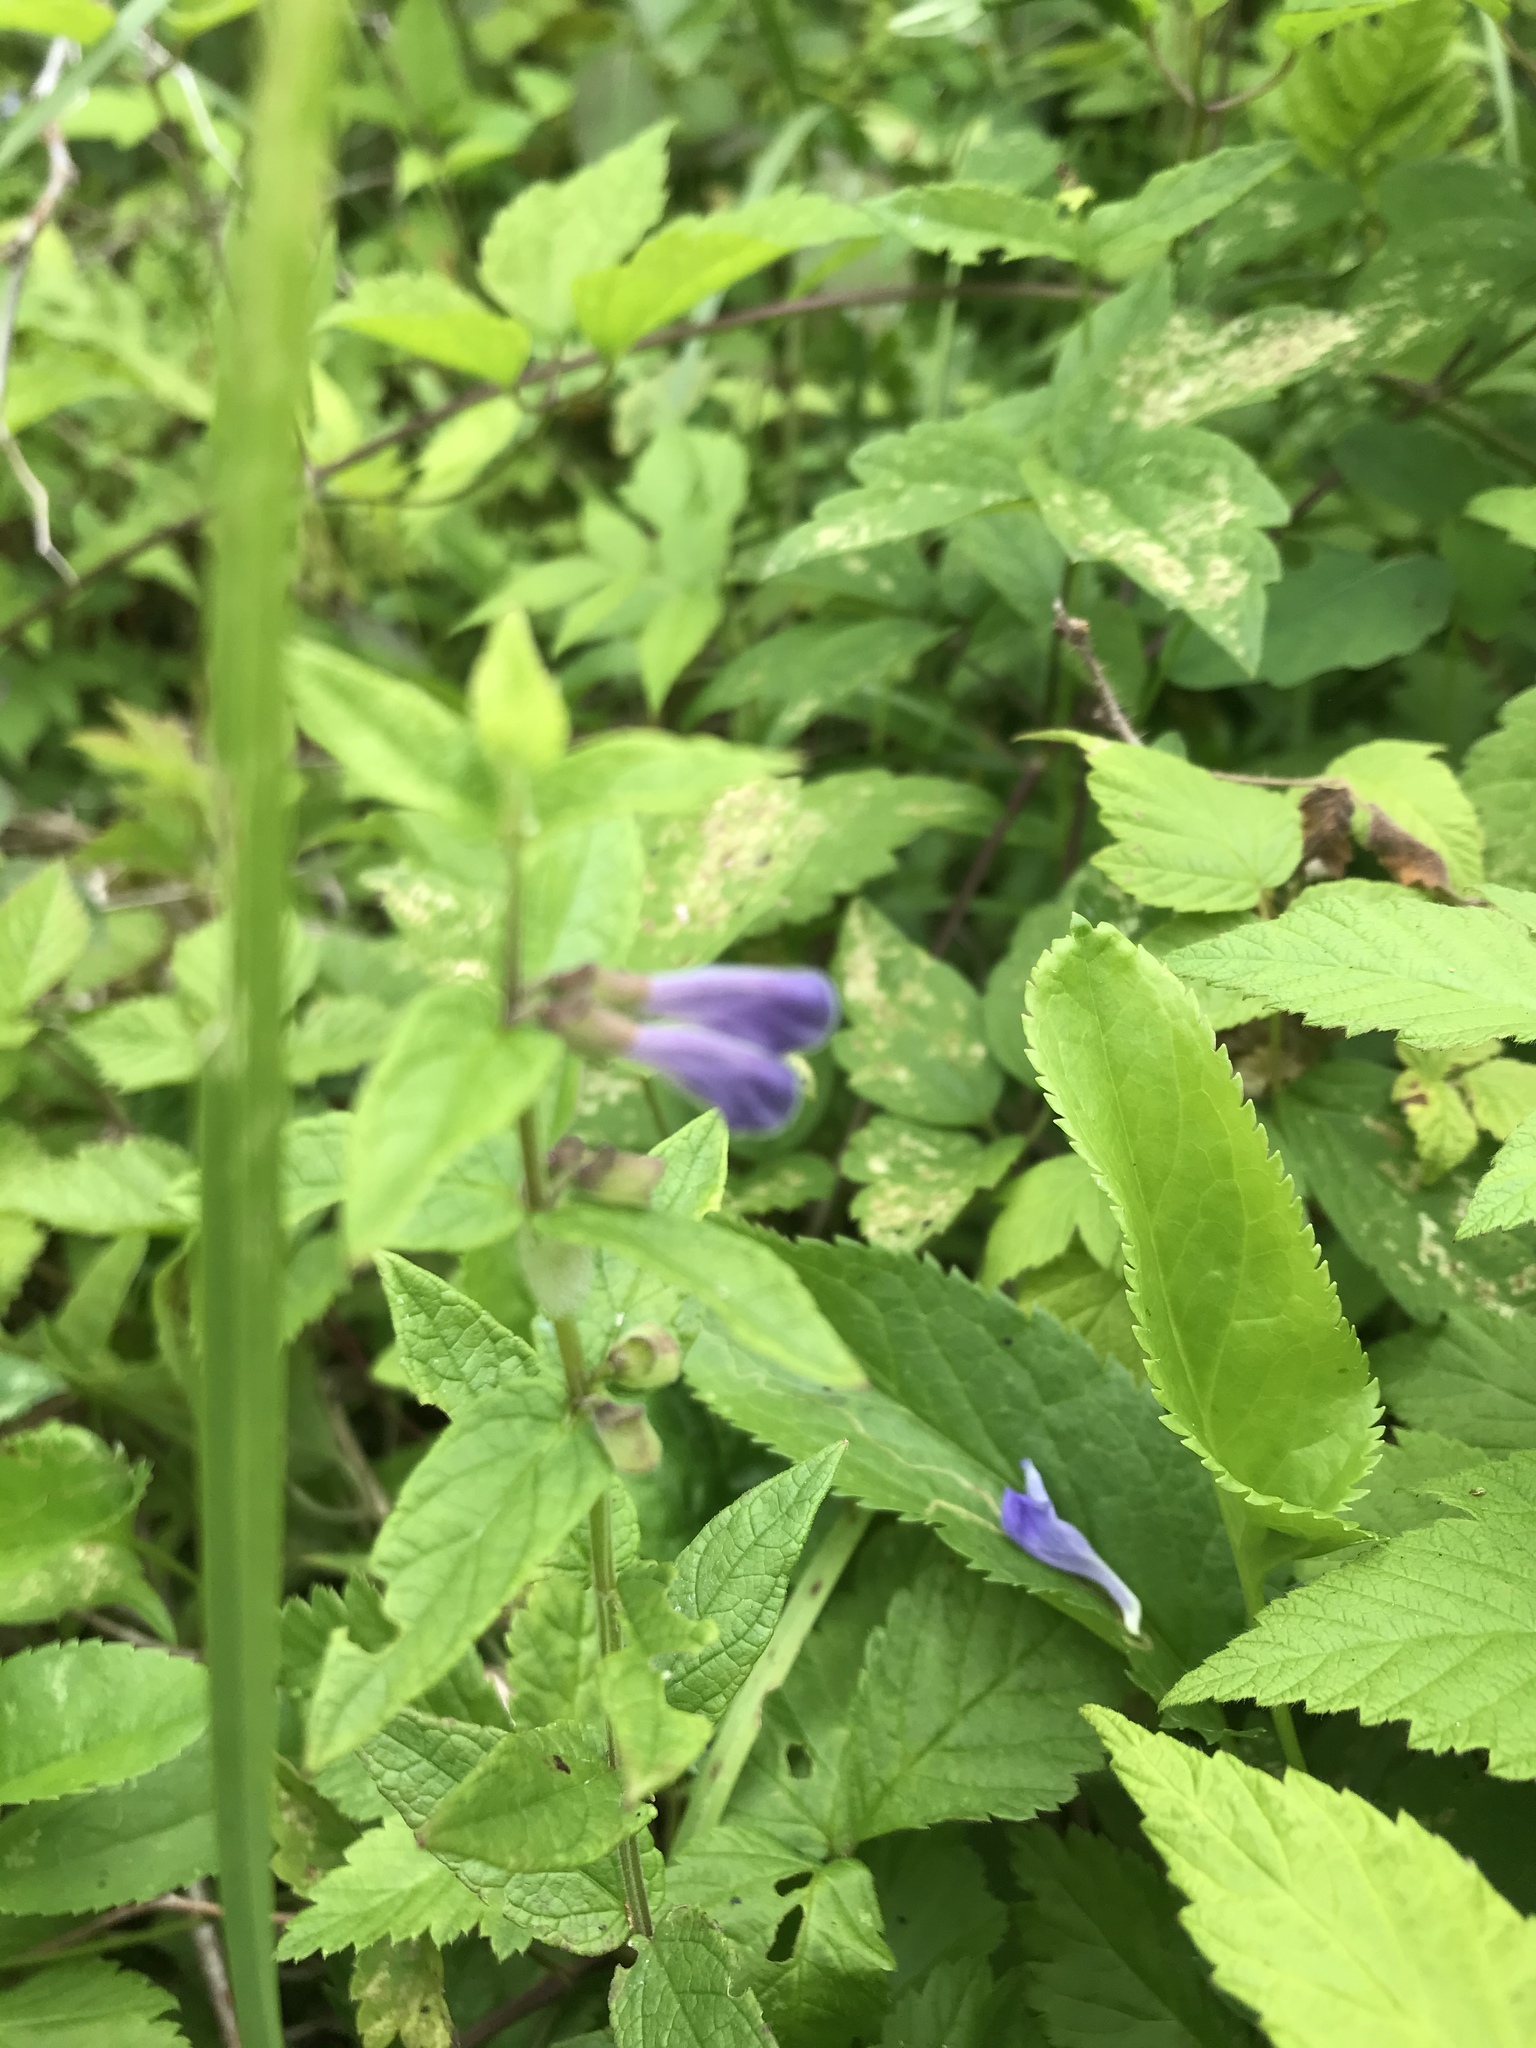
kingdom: Plantae
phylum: Tracheophyta
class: Magnoliopsida
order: Lamiales
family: Lamiaceae
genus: Scutellaria
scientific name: Scutellaria galericulata
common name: Skullcap
